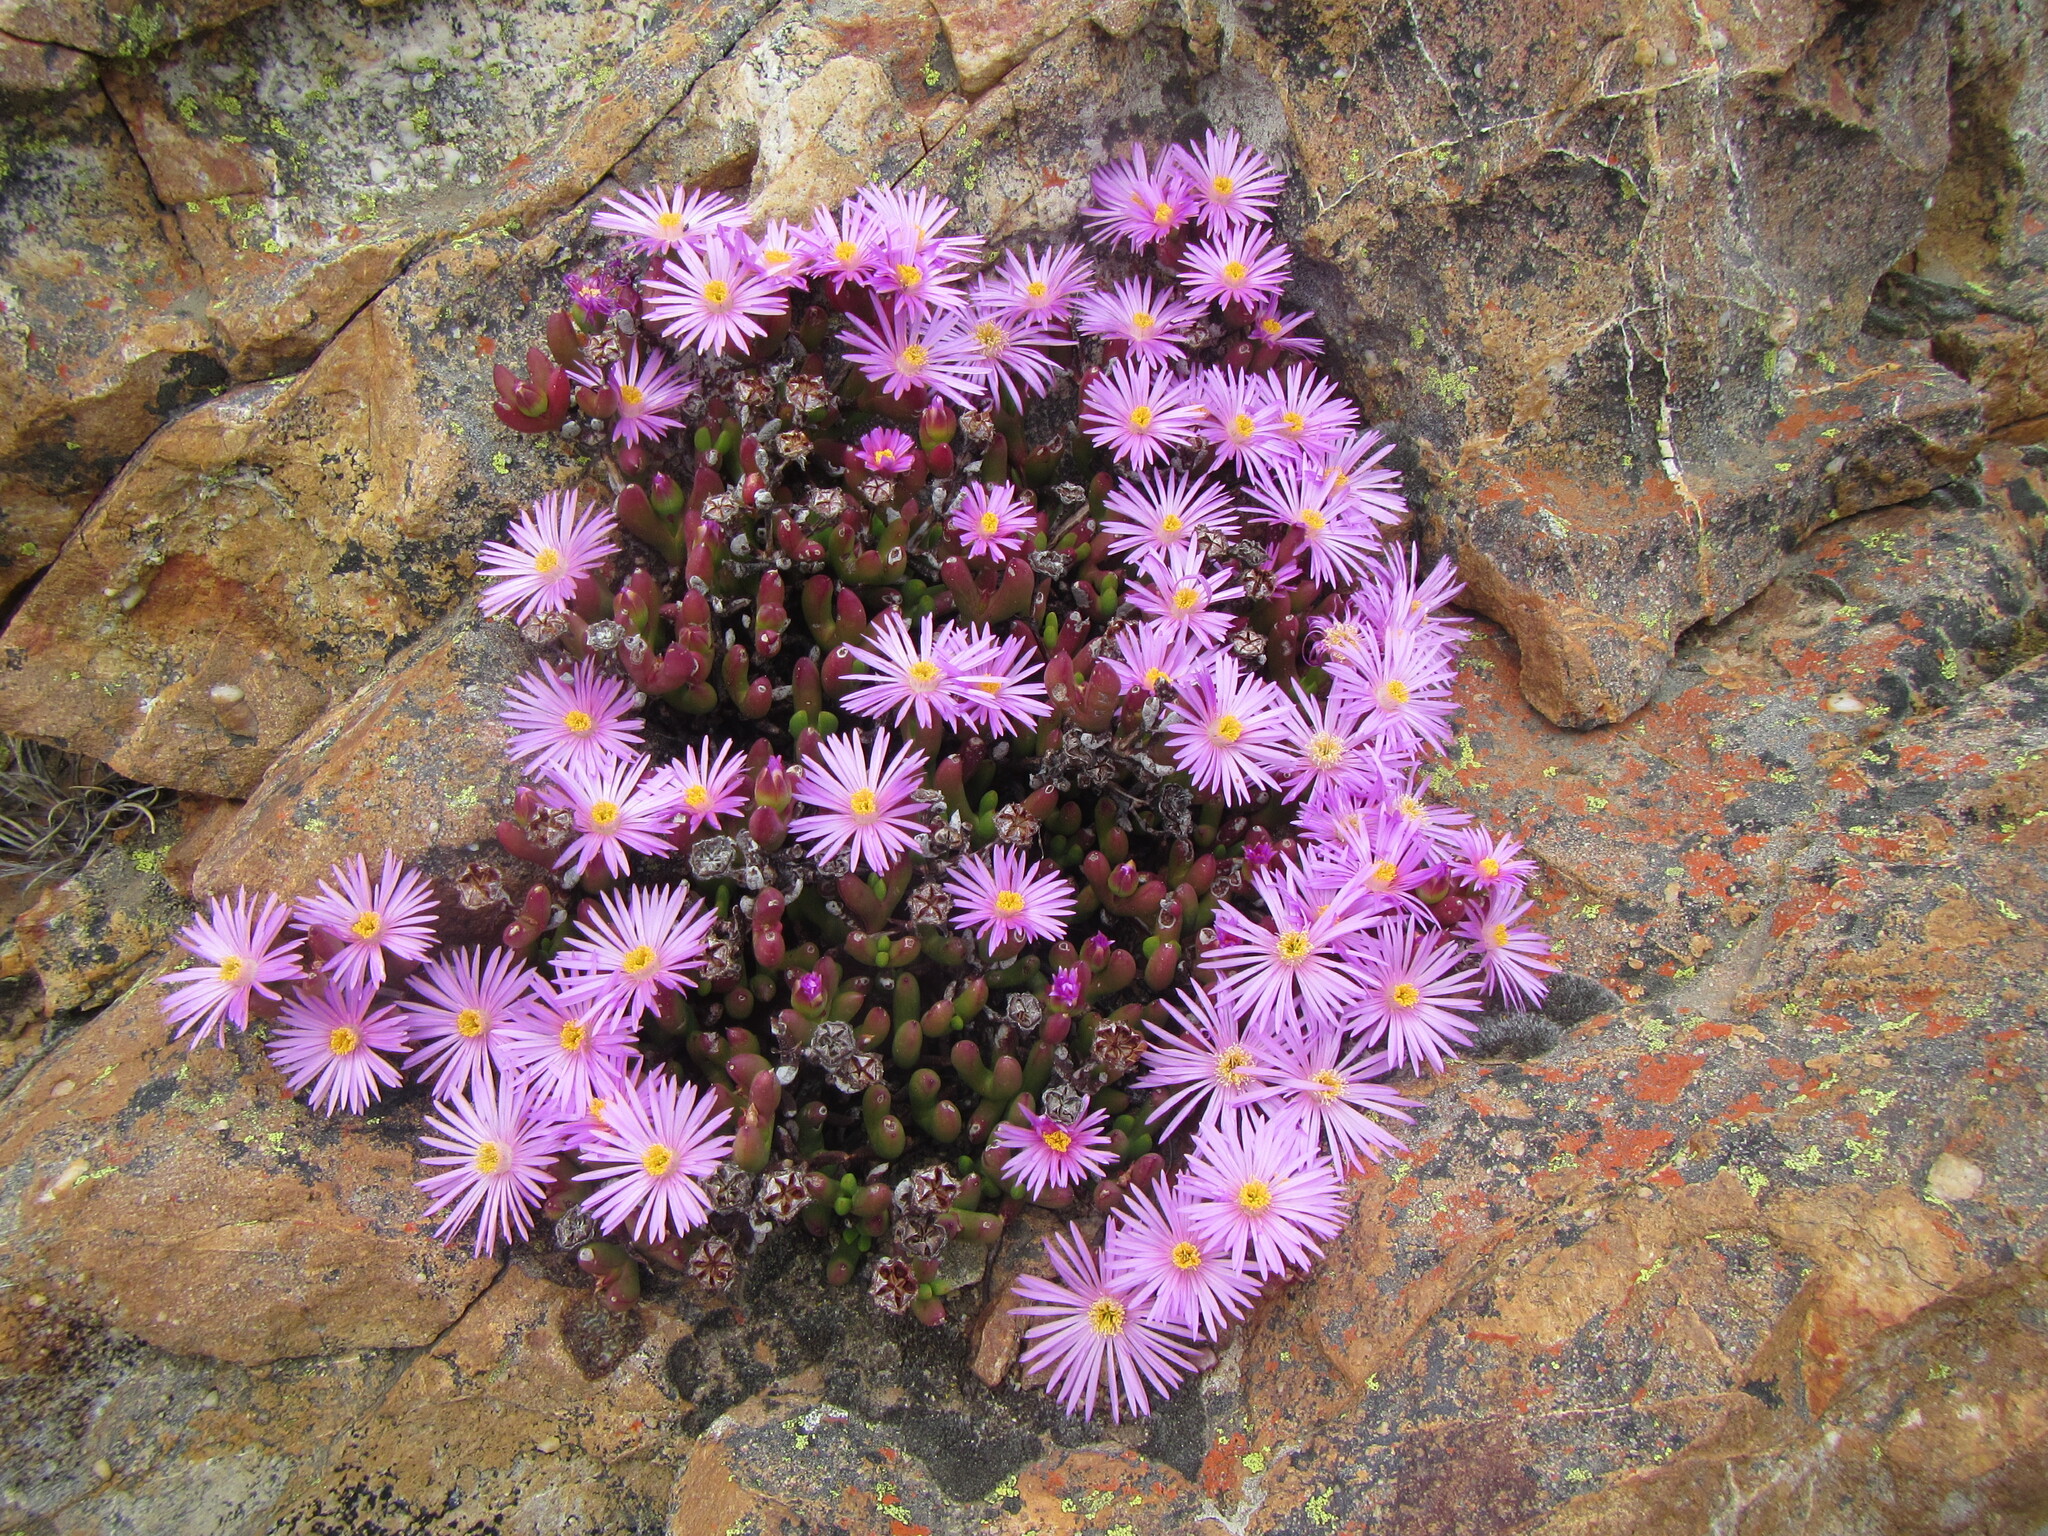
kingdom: Plantae
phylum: Tracheophyta
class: Magnoliopsida
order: Caryophyllales
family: Aizoaceae
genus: Esterhuysenia
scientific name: Esterhuysenia alpina
